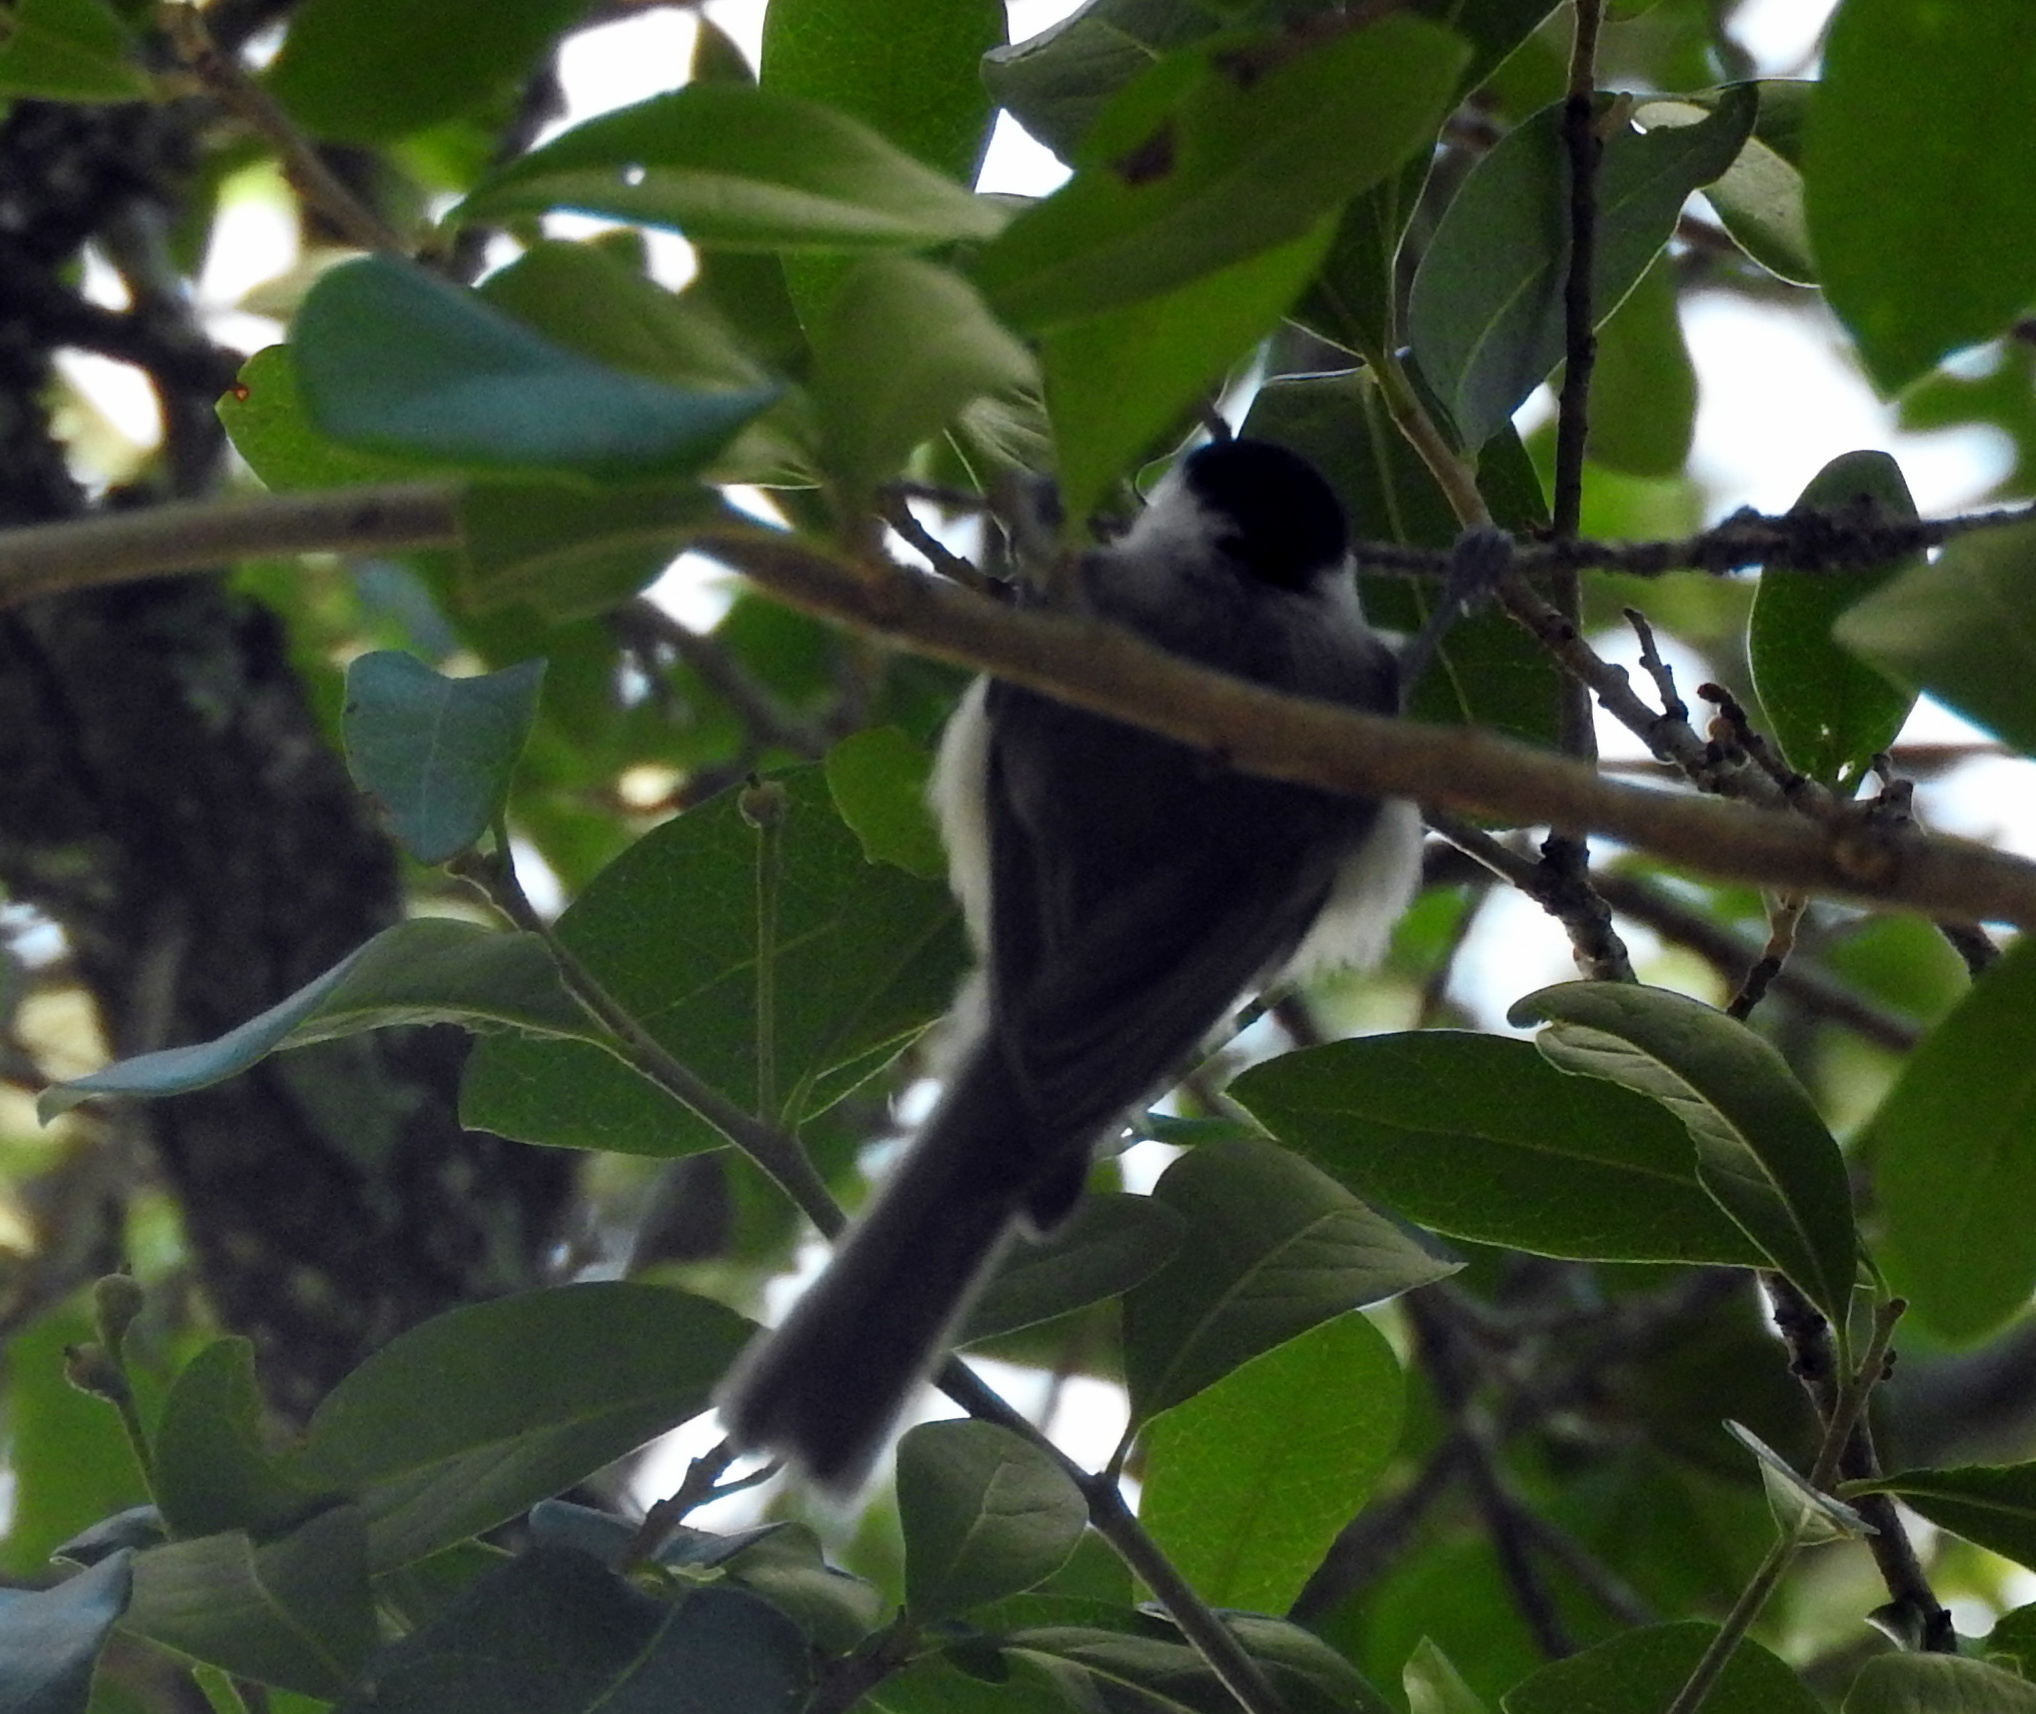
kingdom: Animalia
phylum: Chordata
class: Aves
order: Passeriformes
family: Paridae
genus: Poecile
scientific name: Poecile carolinensis
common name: Carolina chickadee
